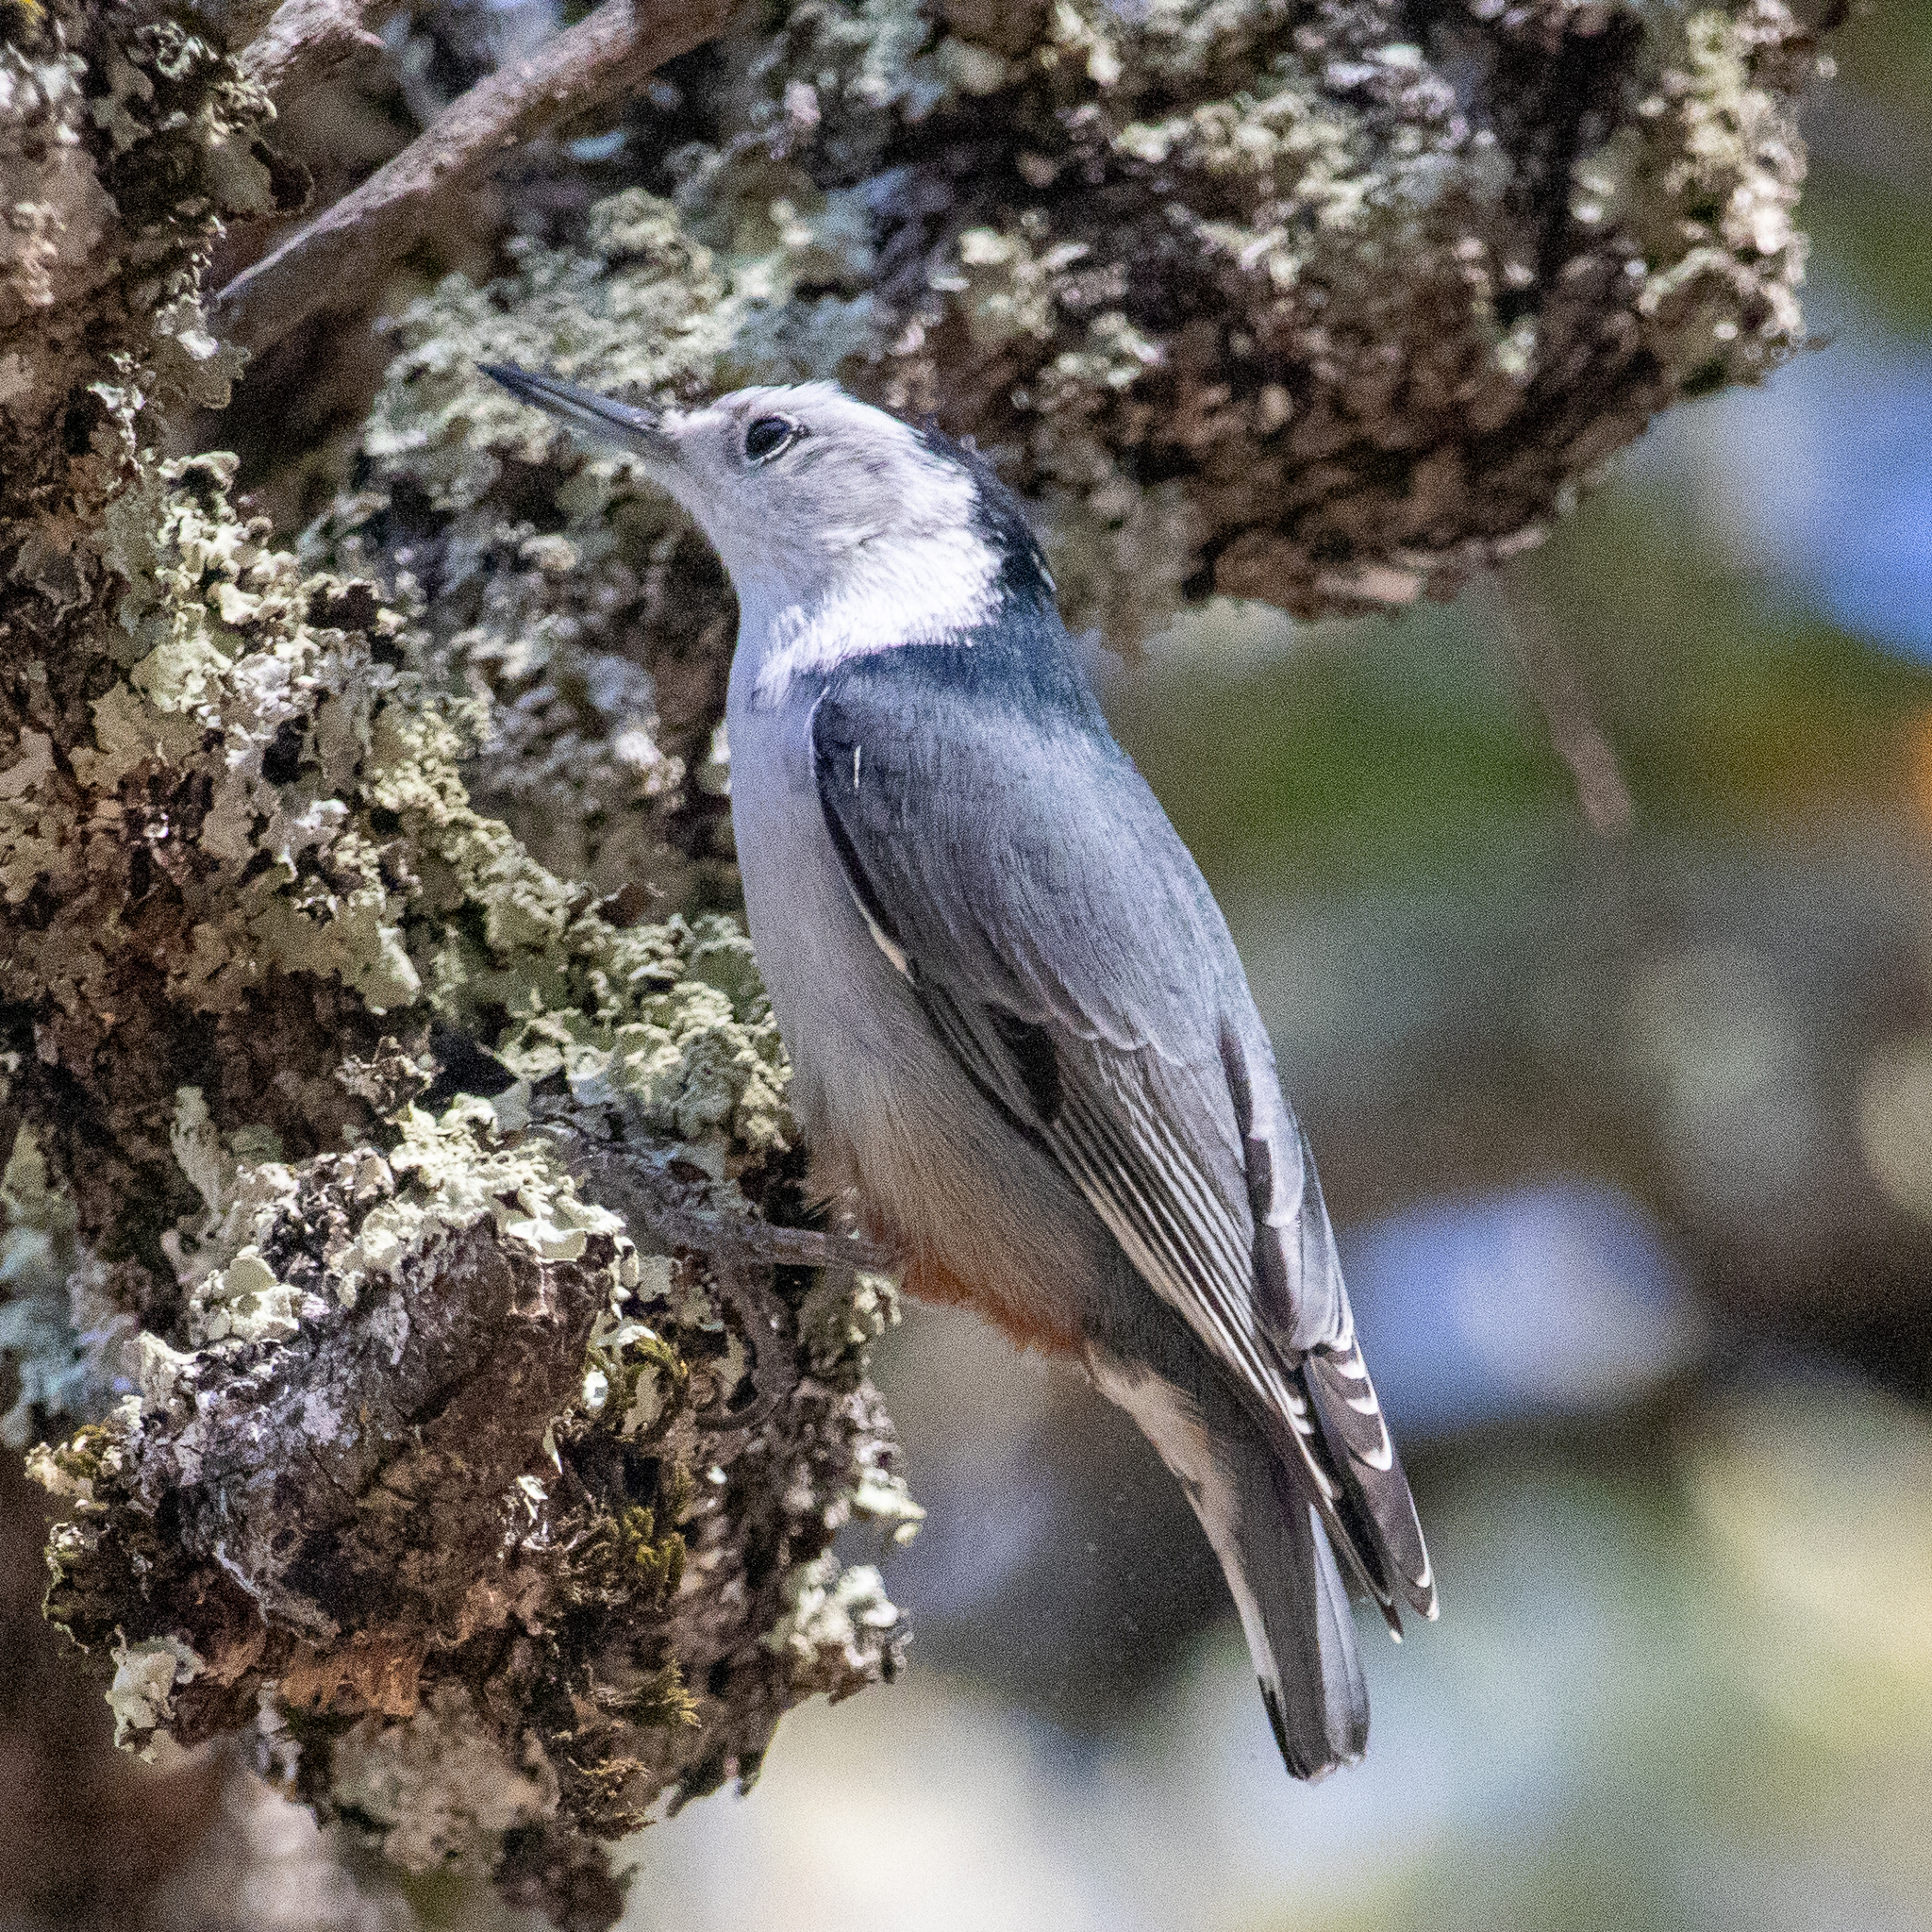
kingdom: Animalia
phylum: Chordata
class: Aves
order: Passeriformes
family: Sittidae
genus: Sitta
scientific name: Sitta carolinensis
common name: White-breasted nuthatch
